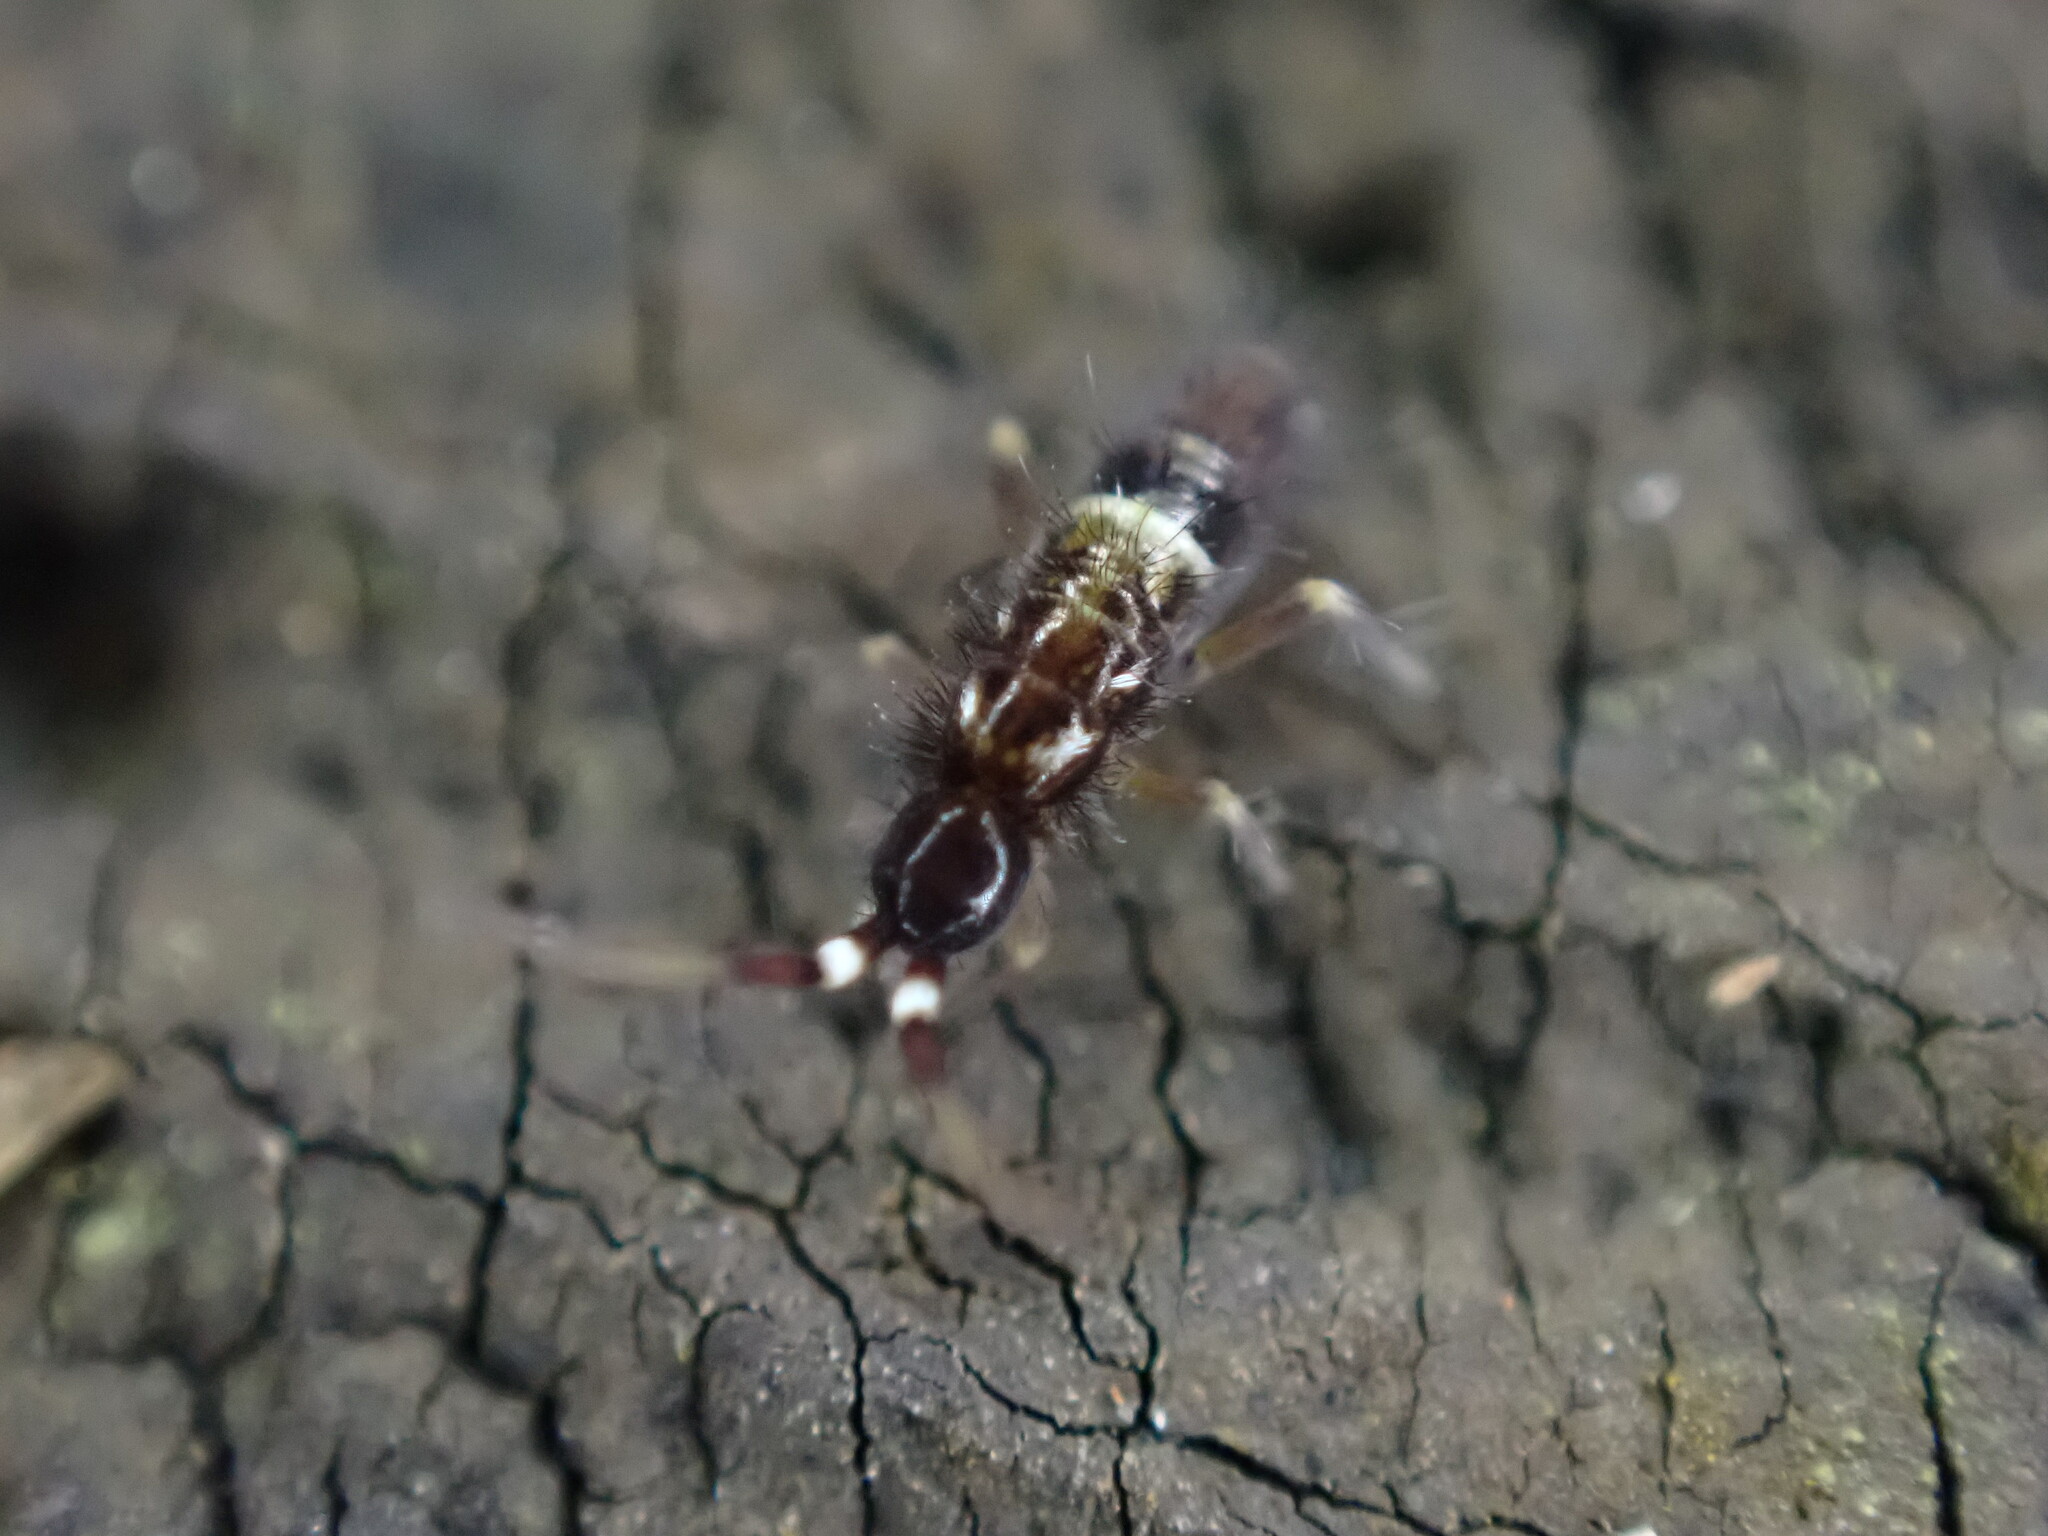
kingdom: Animalia
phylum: Arthropoda
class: Collembola
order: Entomobryomorpha
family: Orchesellidae
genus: Orchesella
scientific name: Orchesella cincta
